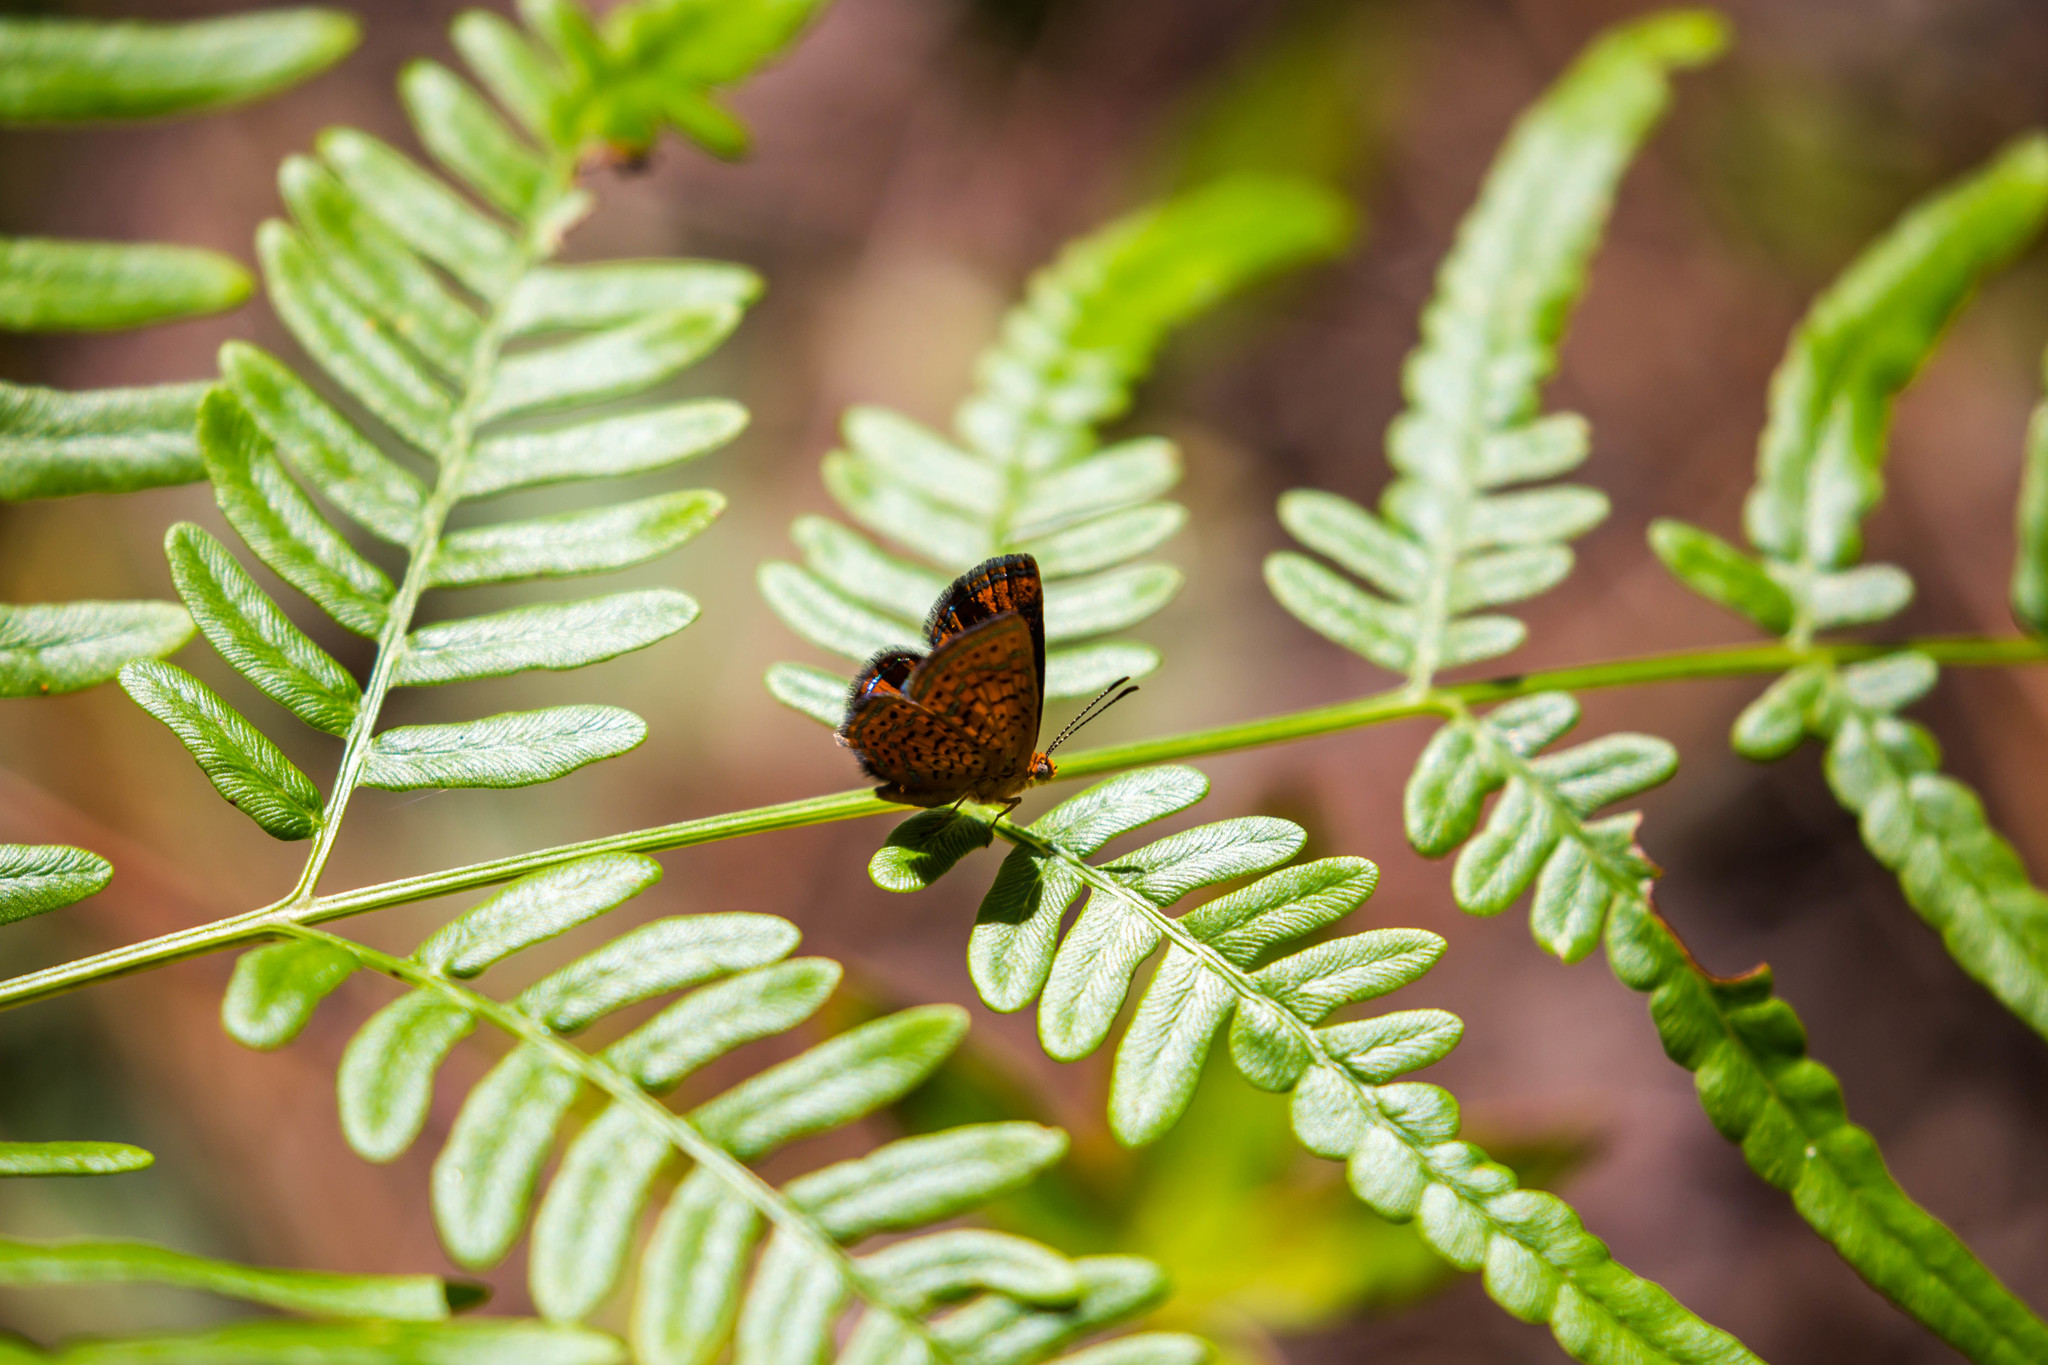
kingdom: Animalia
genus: Calephelis
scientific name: Calephelis virginiensis
